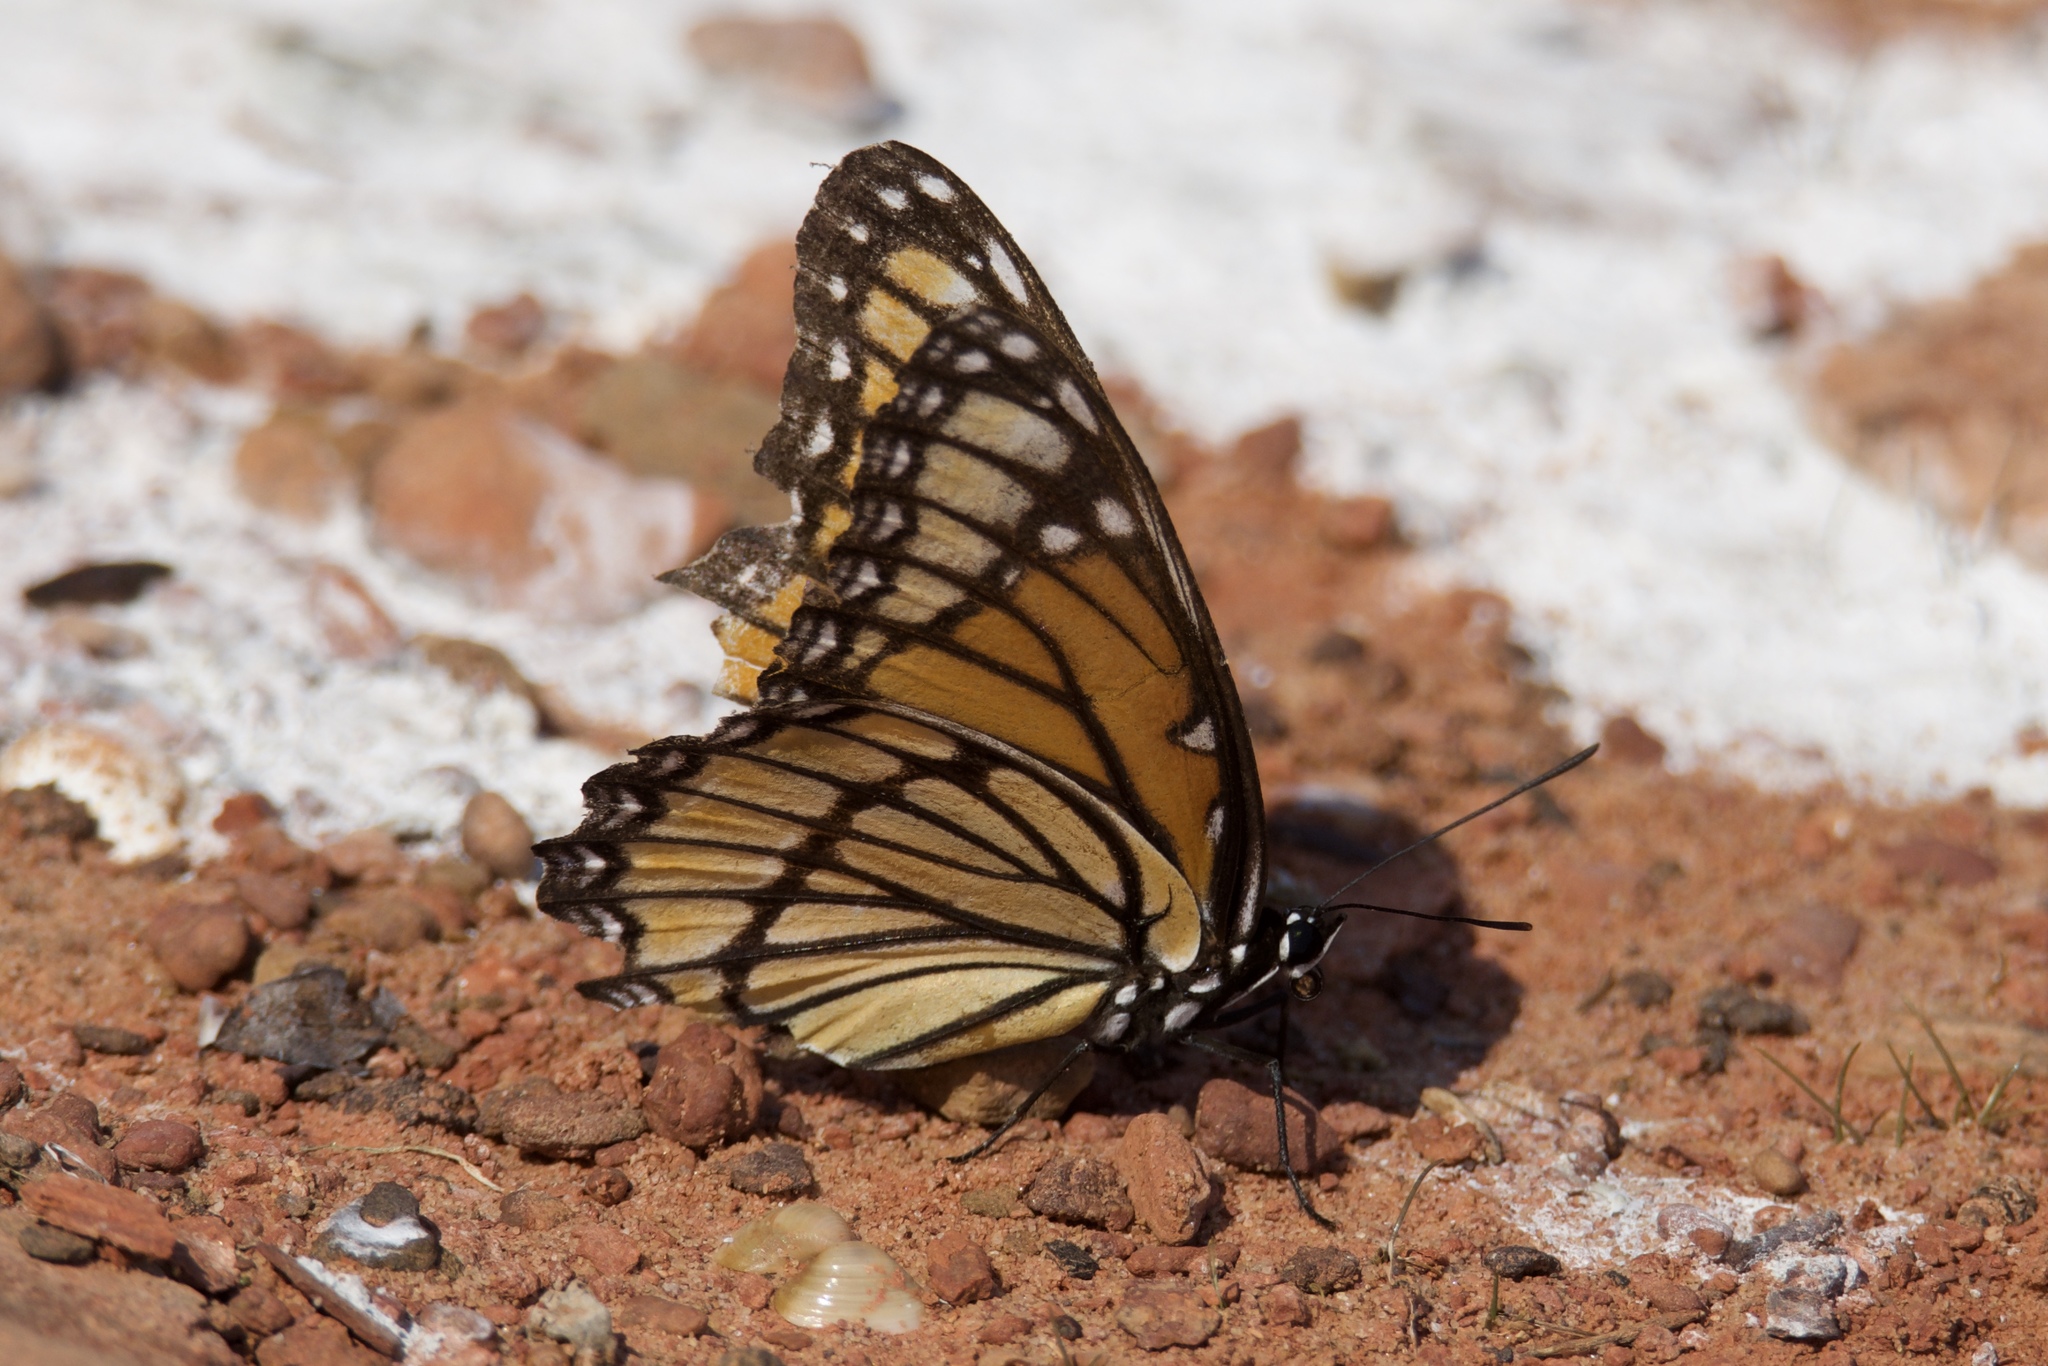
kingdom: Animalia
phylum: Arthropoda
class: Insecta
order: Lepidoptera
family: Nymphalidae
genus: Limenitis
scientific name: Limenitis archippus
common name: Viceroy
